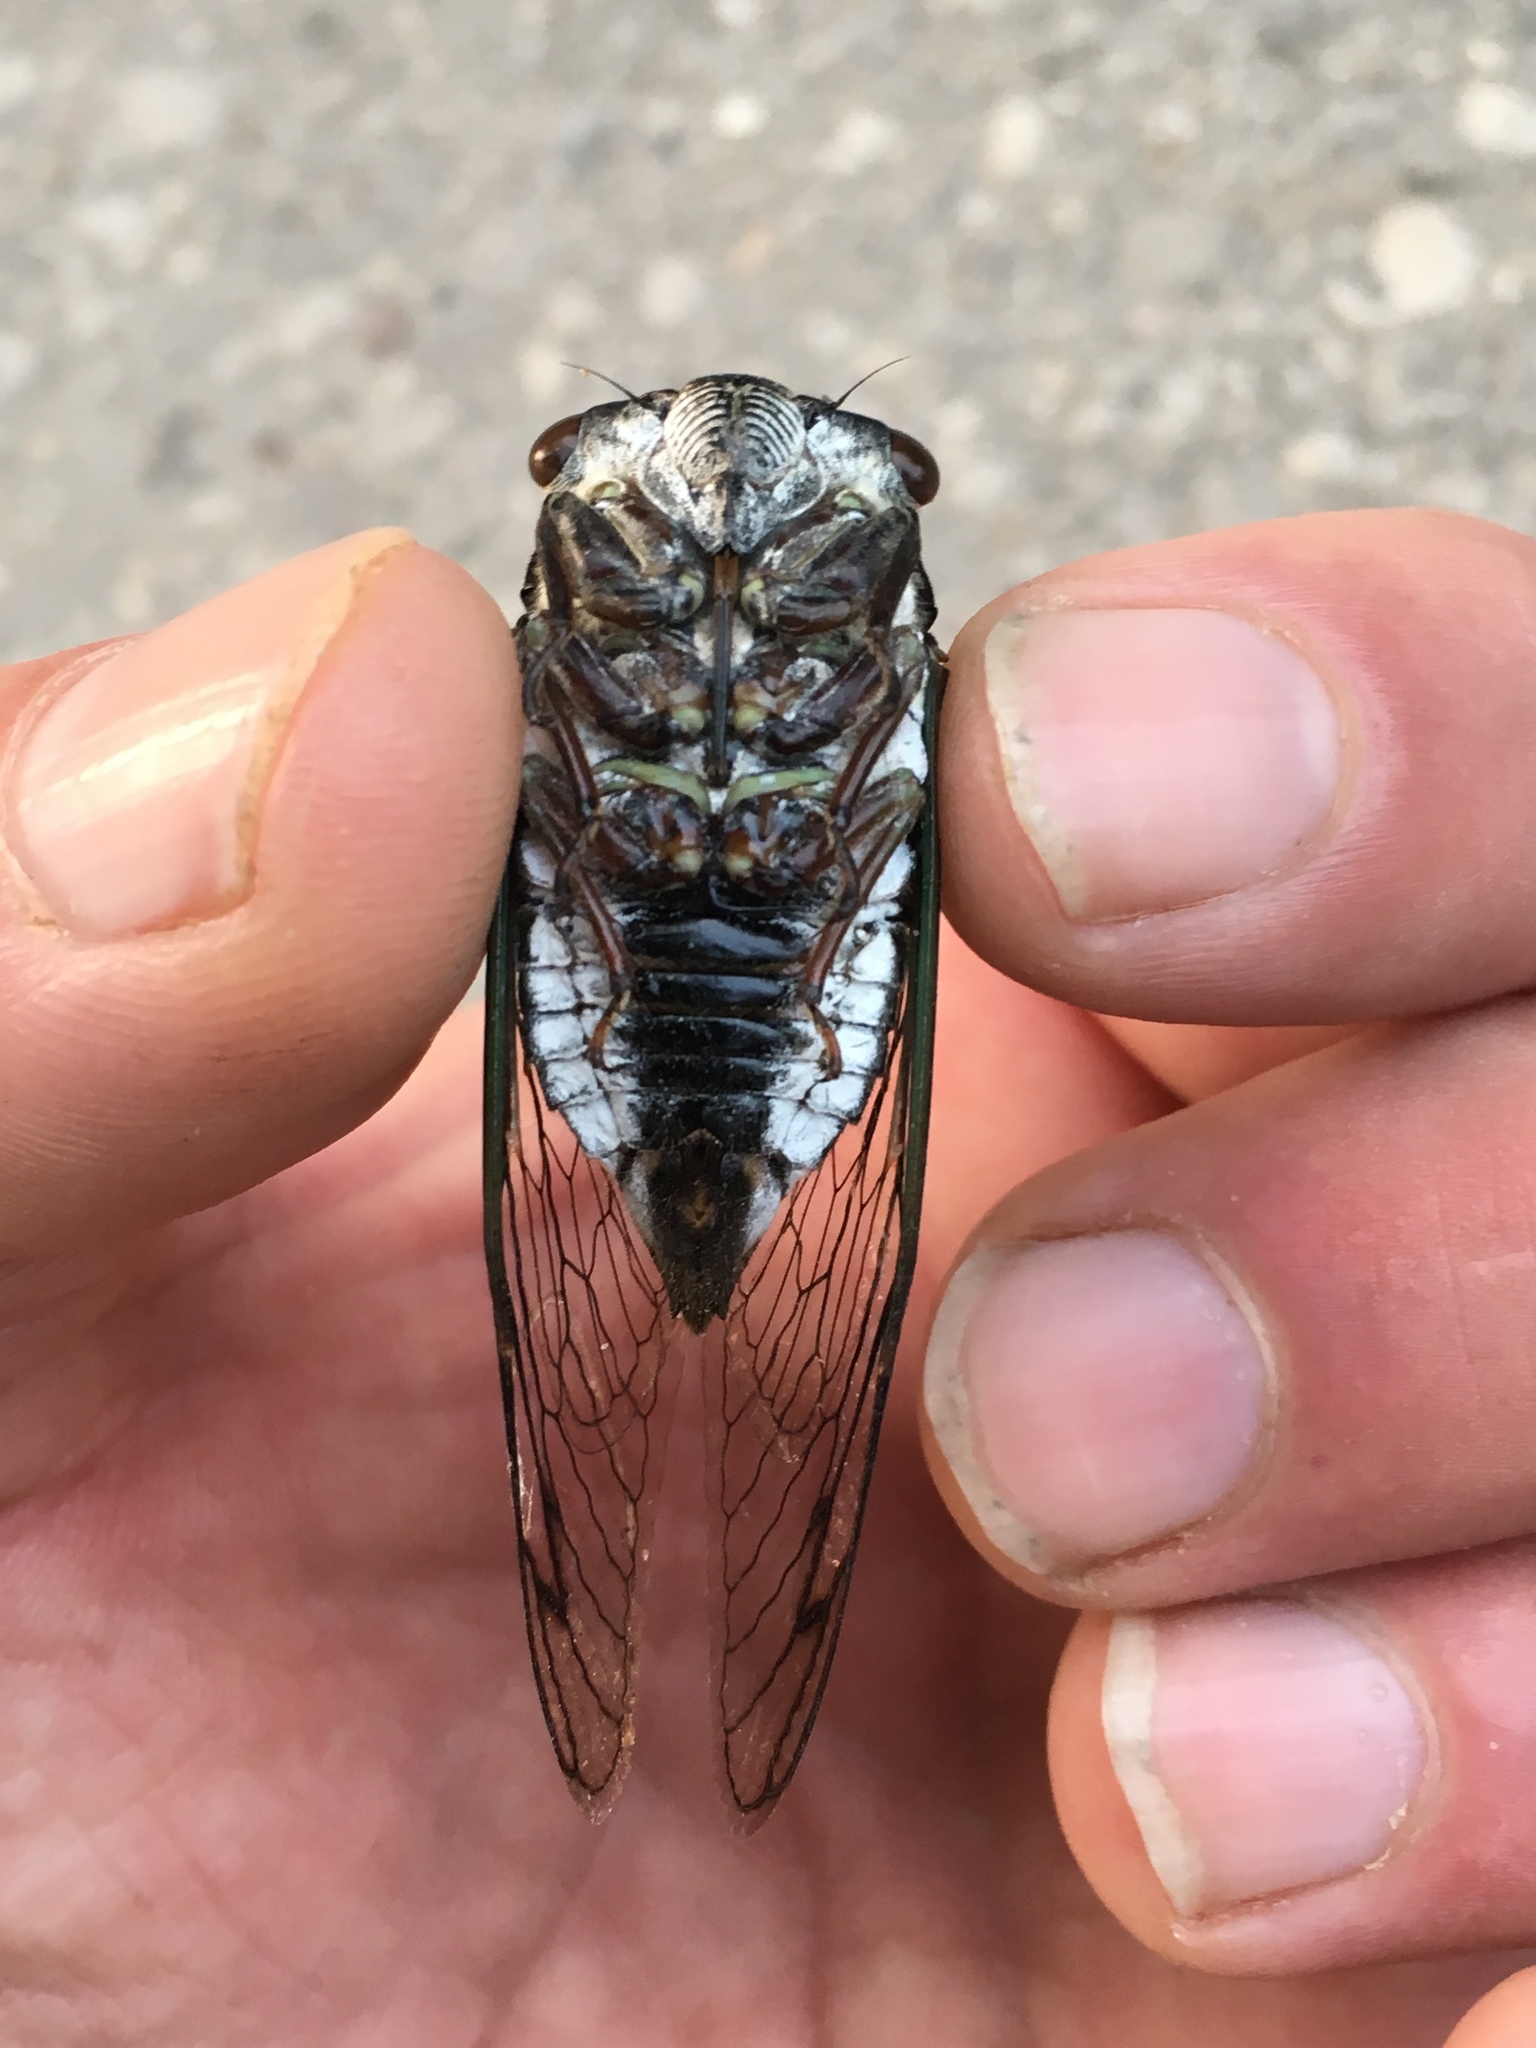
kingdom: Animalia
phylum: Arthropoda
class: Insecta
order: Hemiptera
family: Cicadidae
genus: Neotibicen
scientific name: Neotibicen lyricen
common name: Lyric cicada
